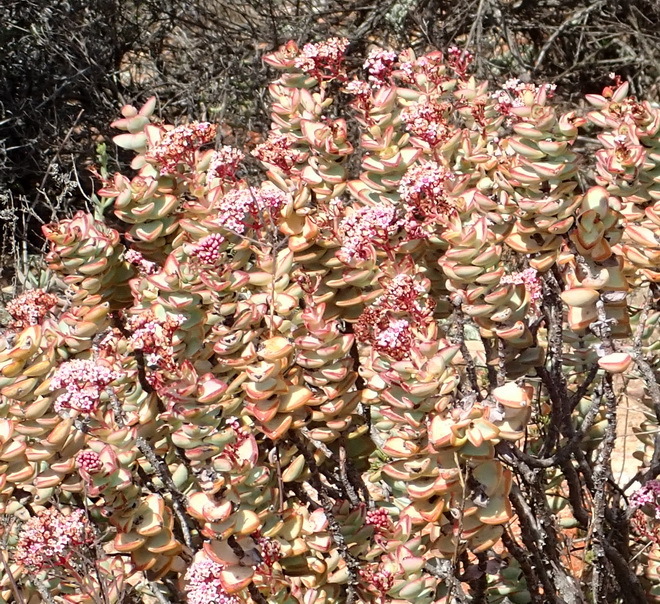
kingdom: Plantae
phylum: Tracheophyta
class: Magnoliopsida
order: Saxifragales
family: Crassulaceae
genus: Crassula
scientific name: Crassula rupestris
